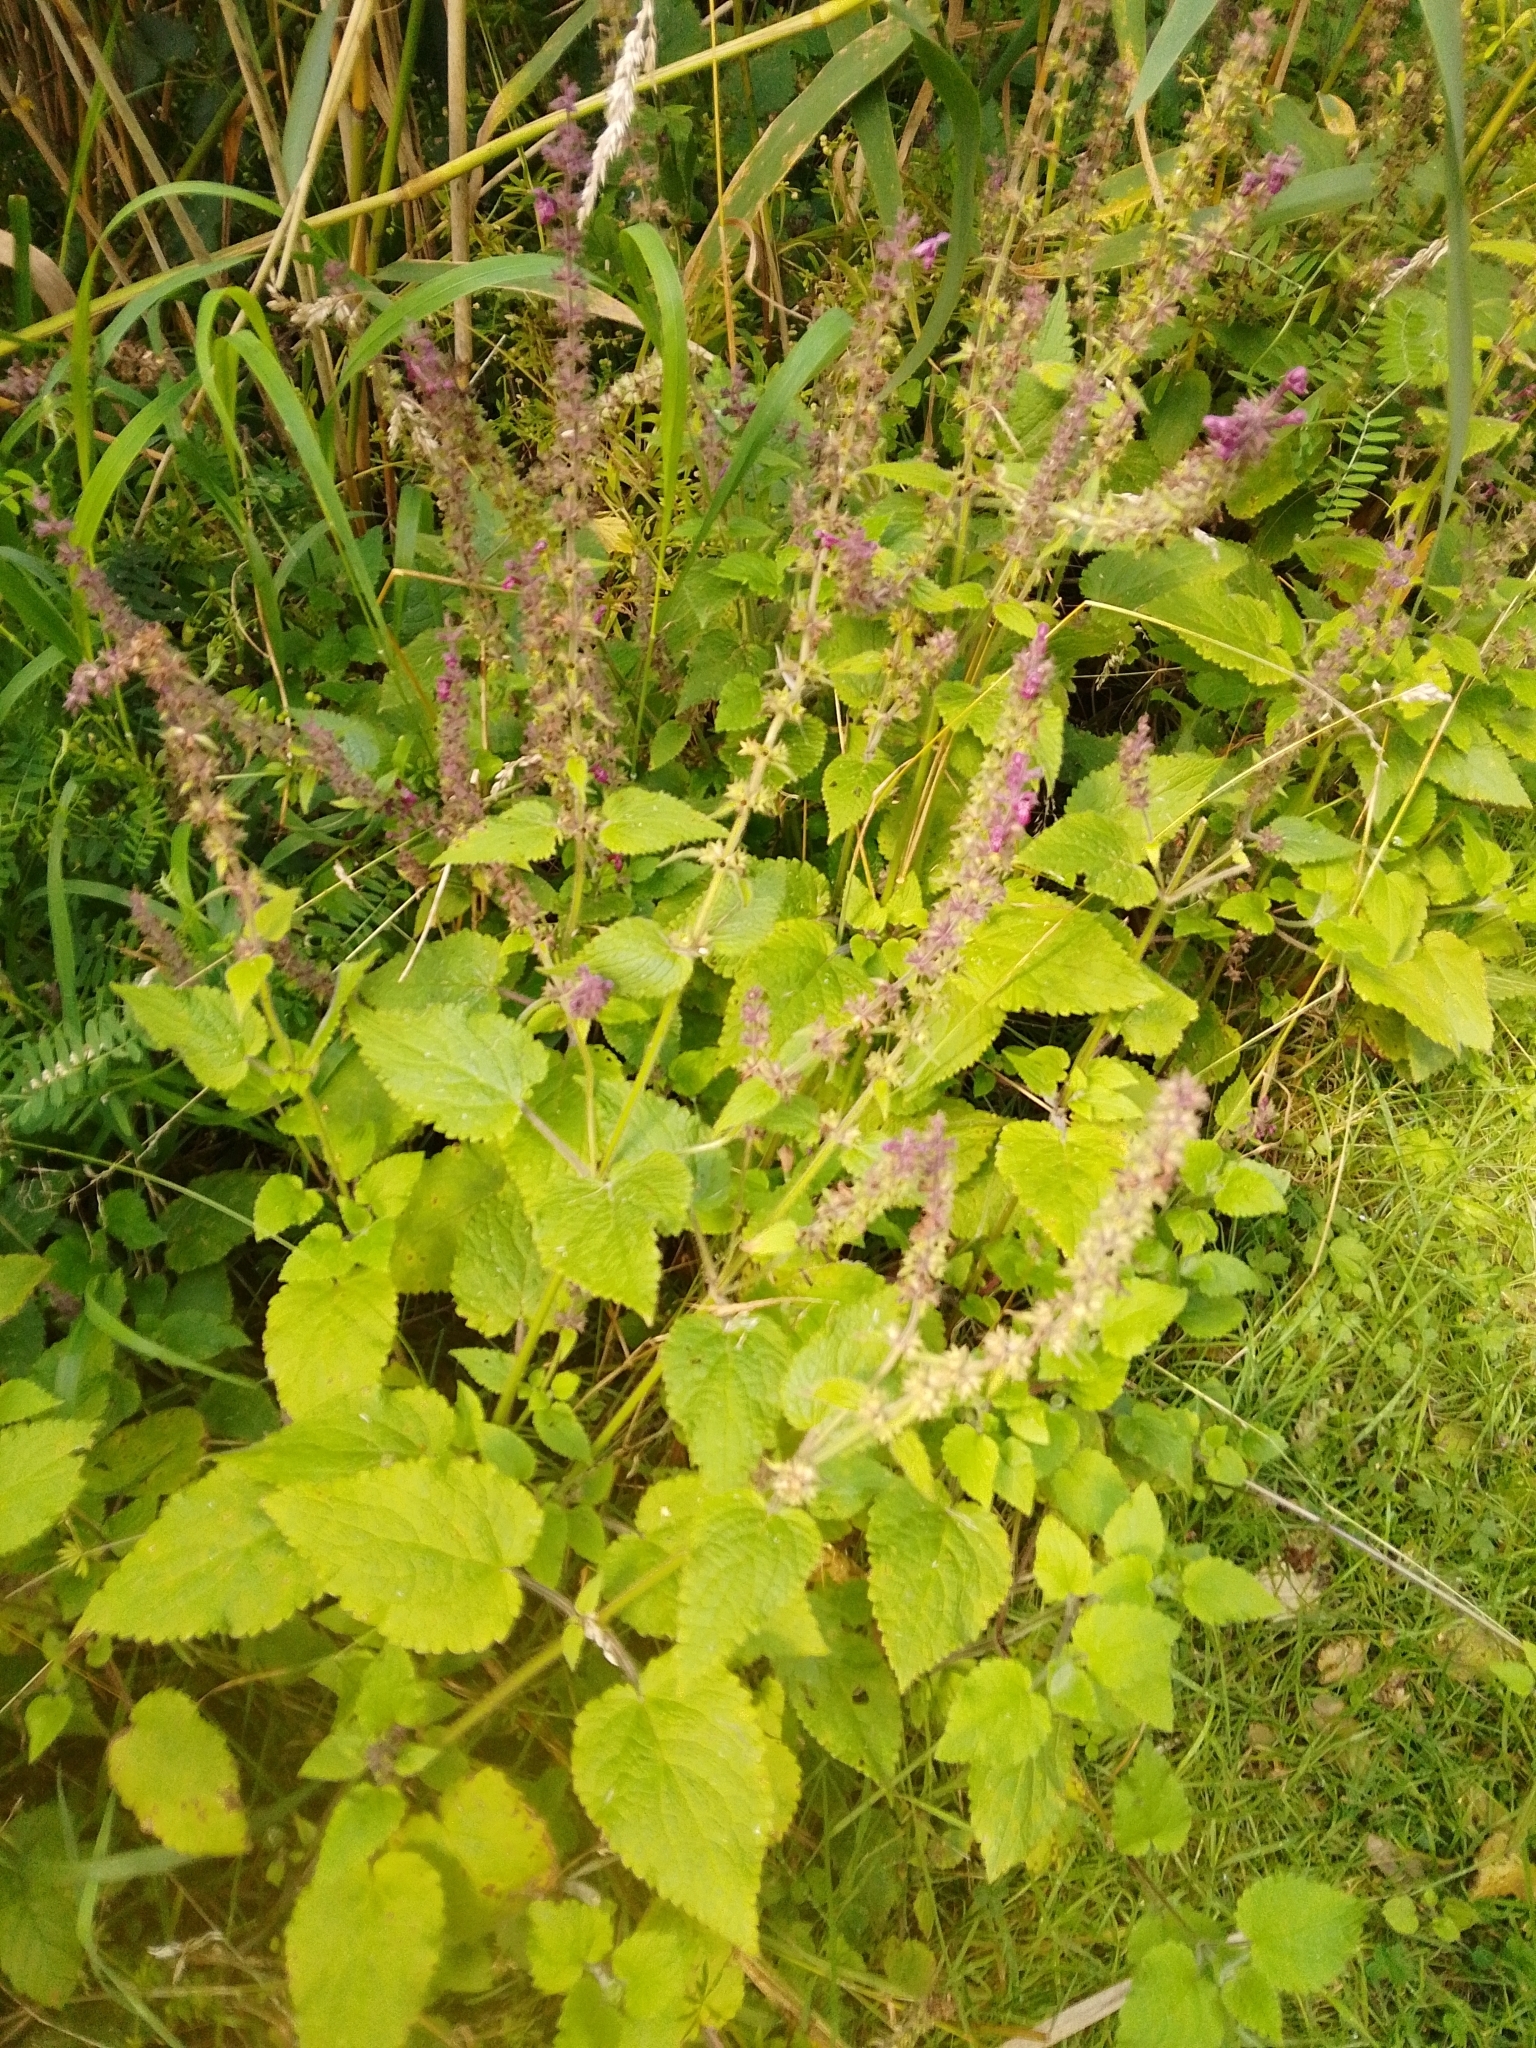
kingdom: Plantae
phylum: Tracheophyta
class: Magnoliopsida
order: Lamiales
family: Lamiaceae
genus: Stachys
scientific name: Stachys sylvatica
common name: Hedge woundwort
